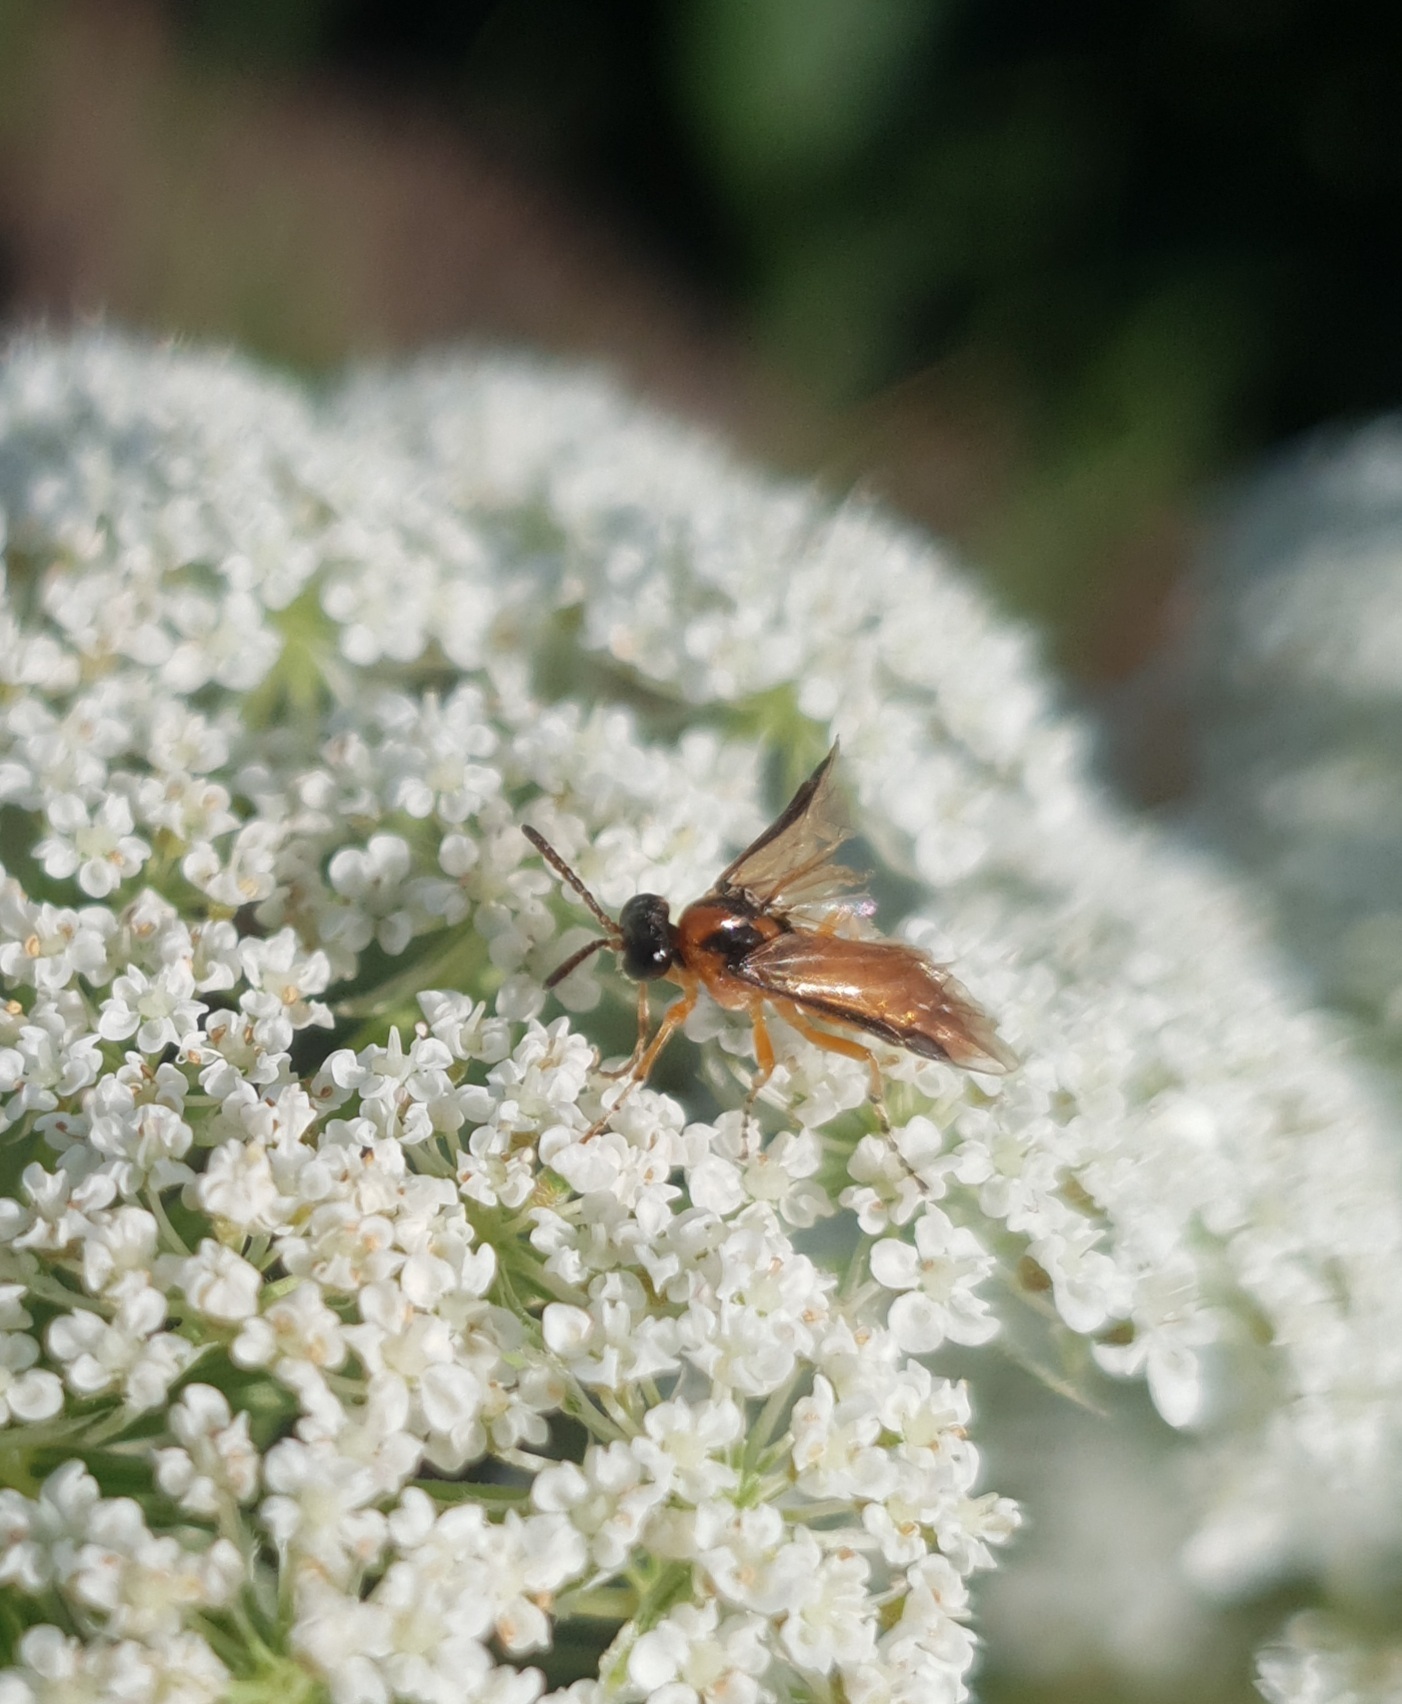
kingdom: Animalia
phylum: Arthropoda
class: Insecta
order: Hymenoptera
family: Tenthredinidae
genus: Athalia
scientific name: Athalia rosae
